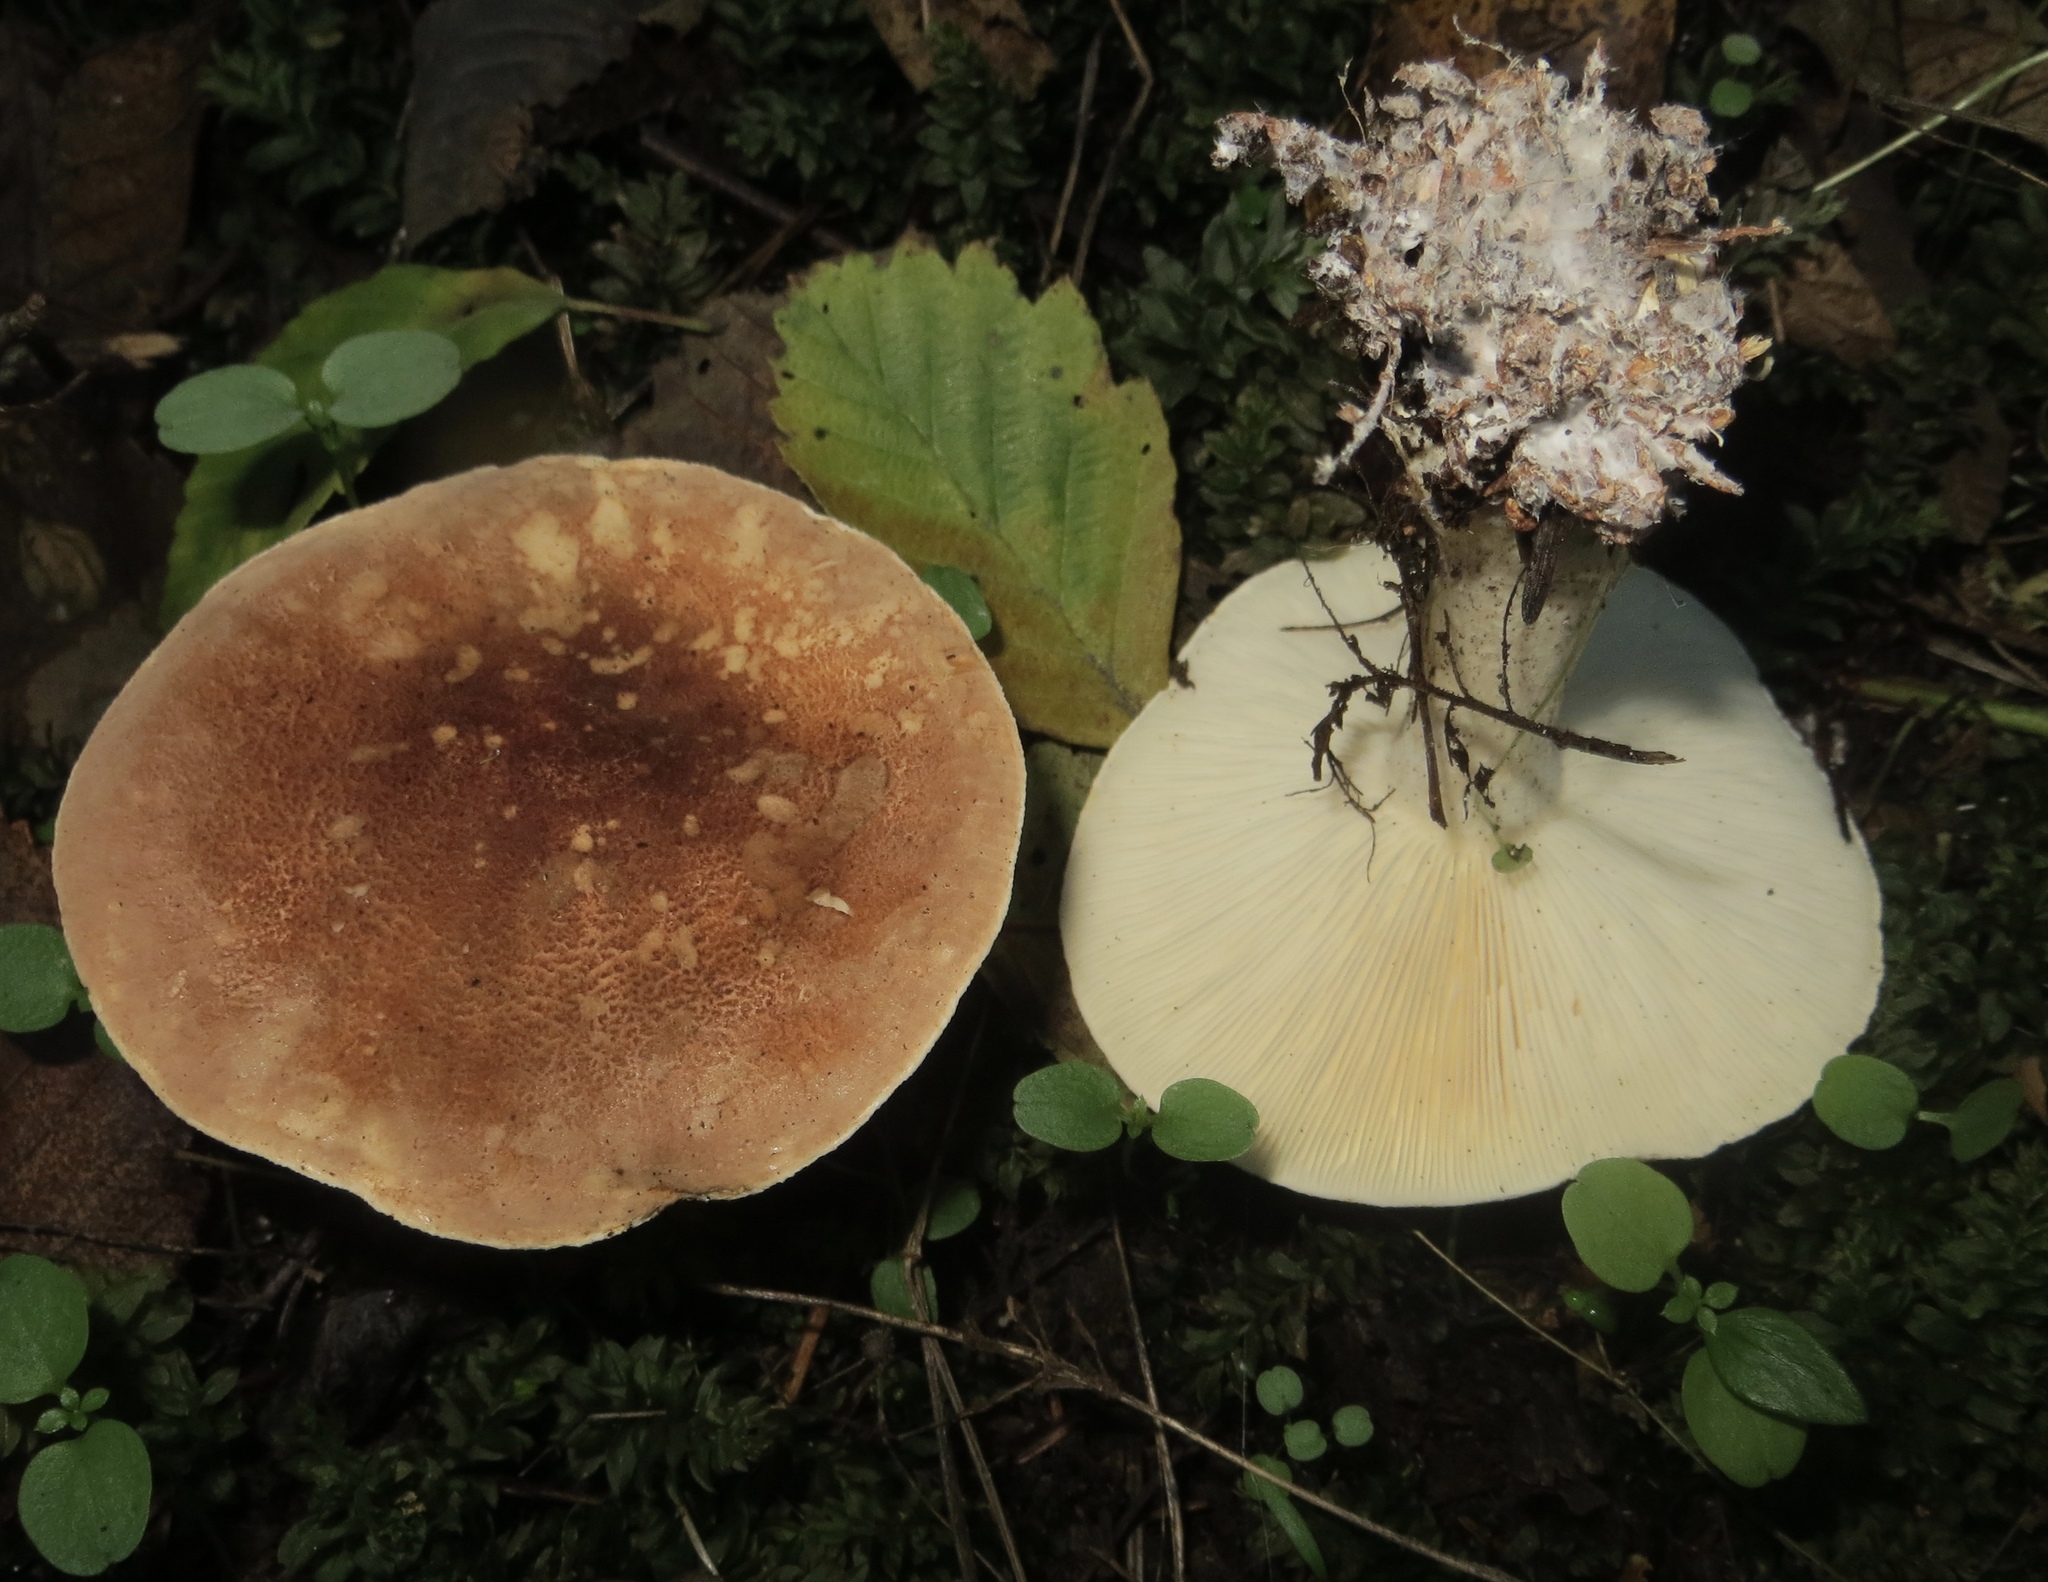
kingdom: Fungi
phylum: Basidiomycota
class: Agaricomycetes
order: Agaricales
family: Tricholomataceae
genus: Leucopaxillus
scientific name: Leucopaxillus gentianeus
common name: Bitter funnel
